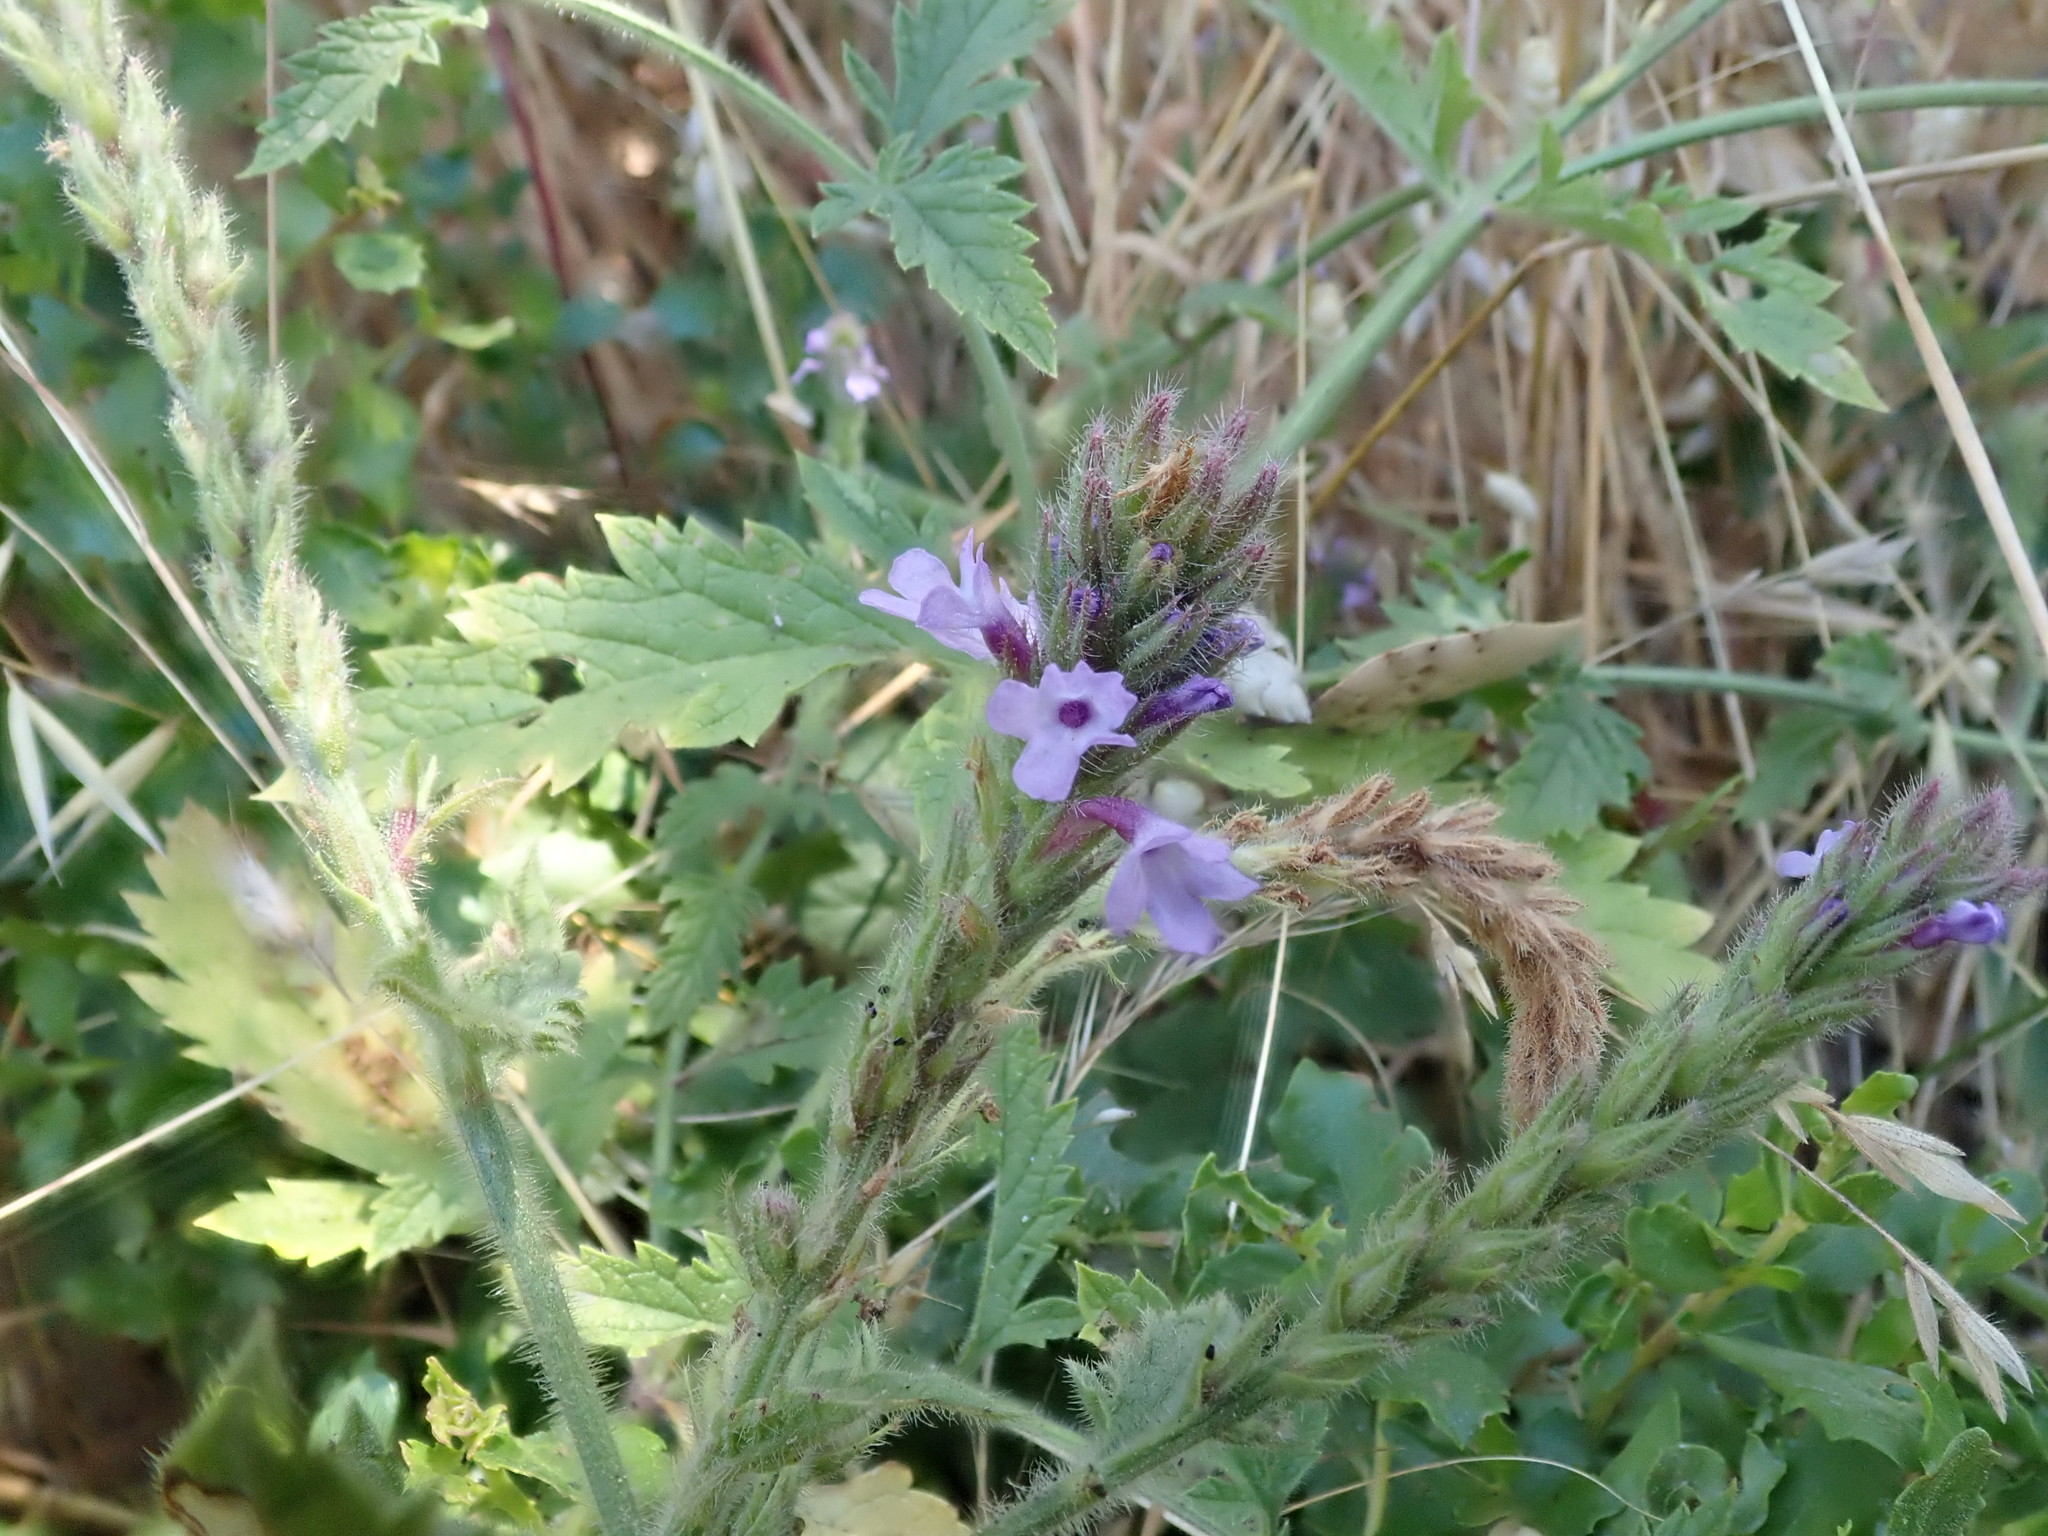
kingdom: Plantae
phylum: Tracheophyta
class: Magnoliopsida
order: Lamiales
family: Verbenaceae
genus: Verbena
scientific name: Verbena lasiostachys
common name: Vervain
